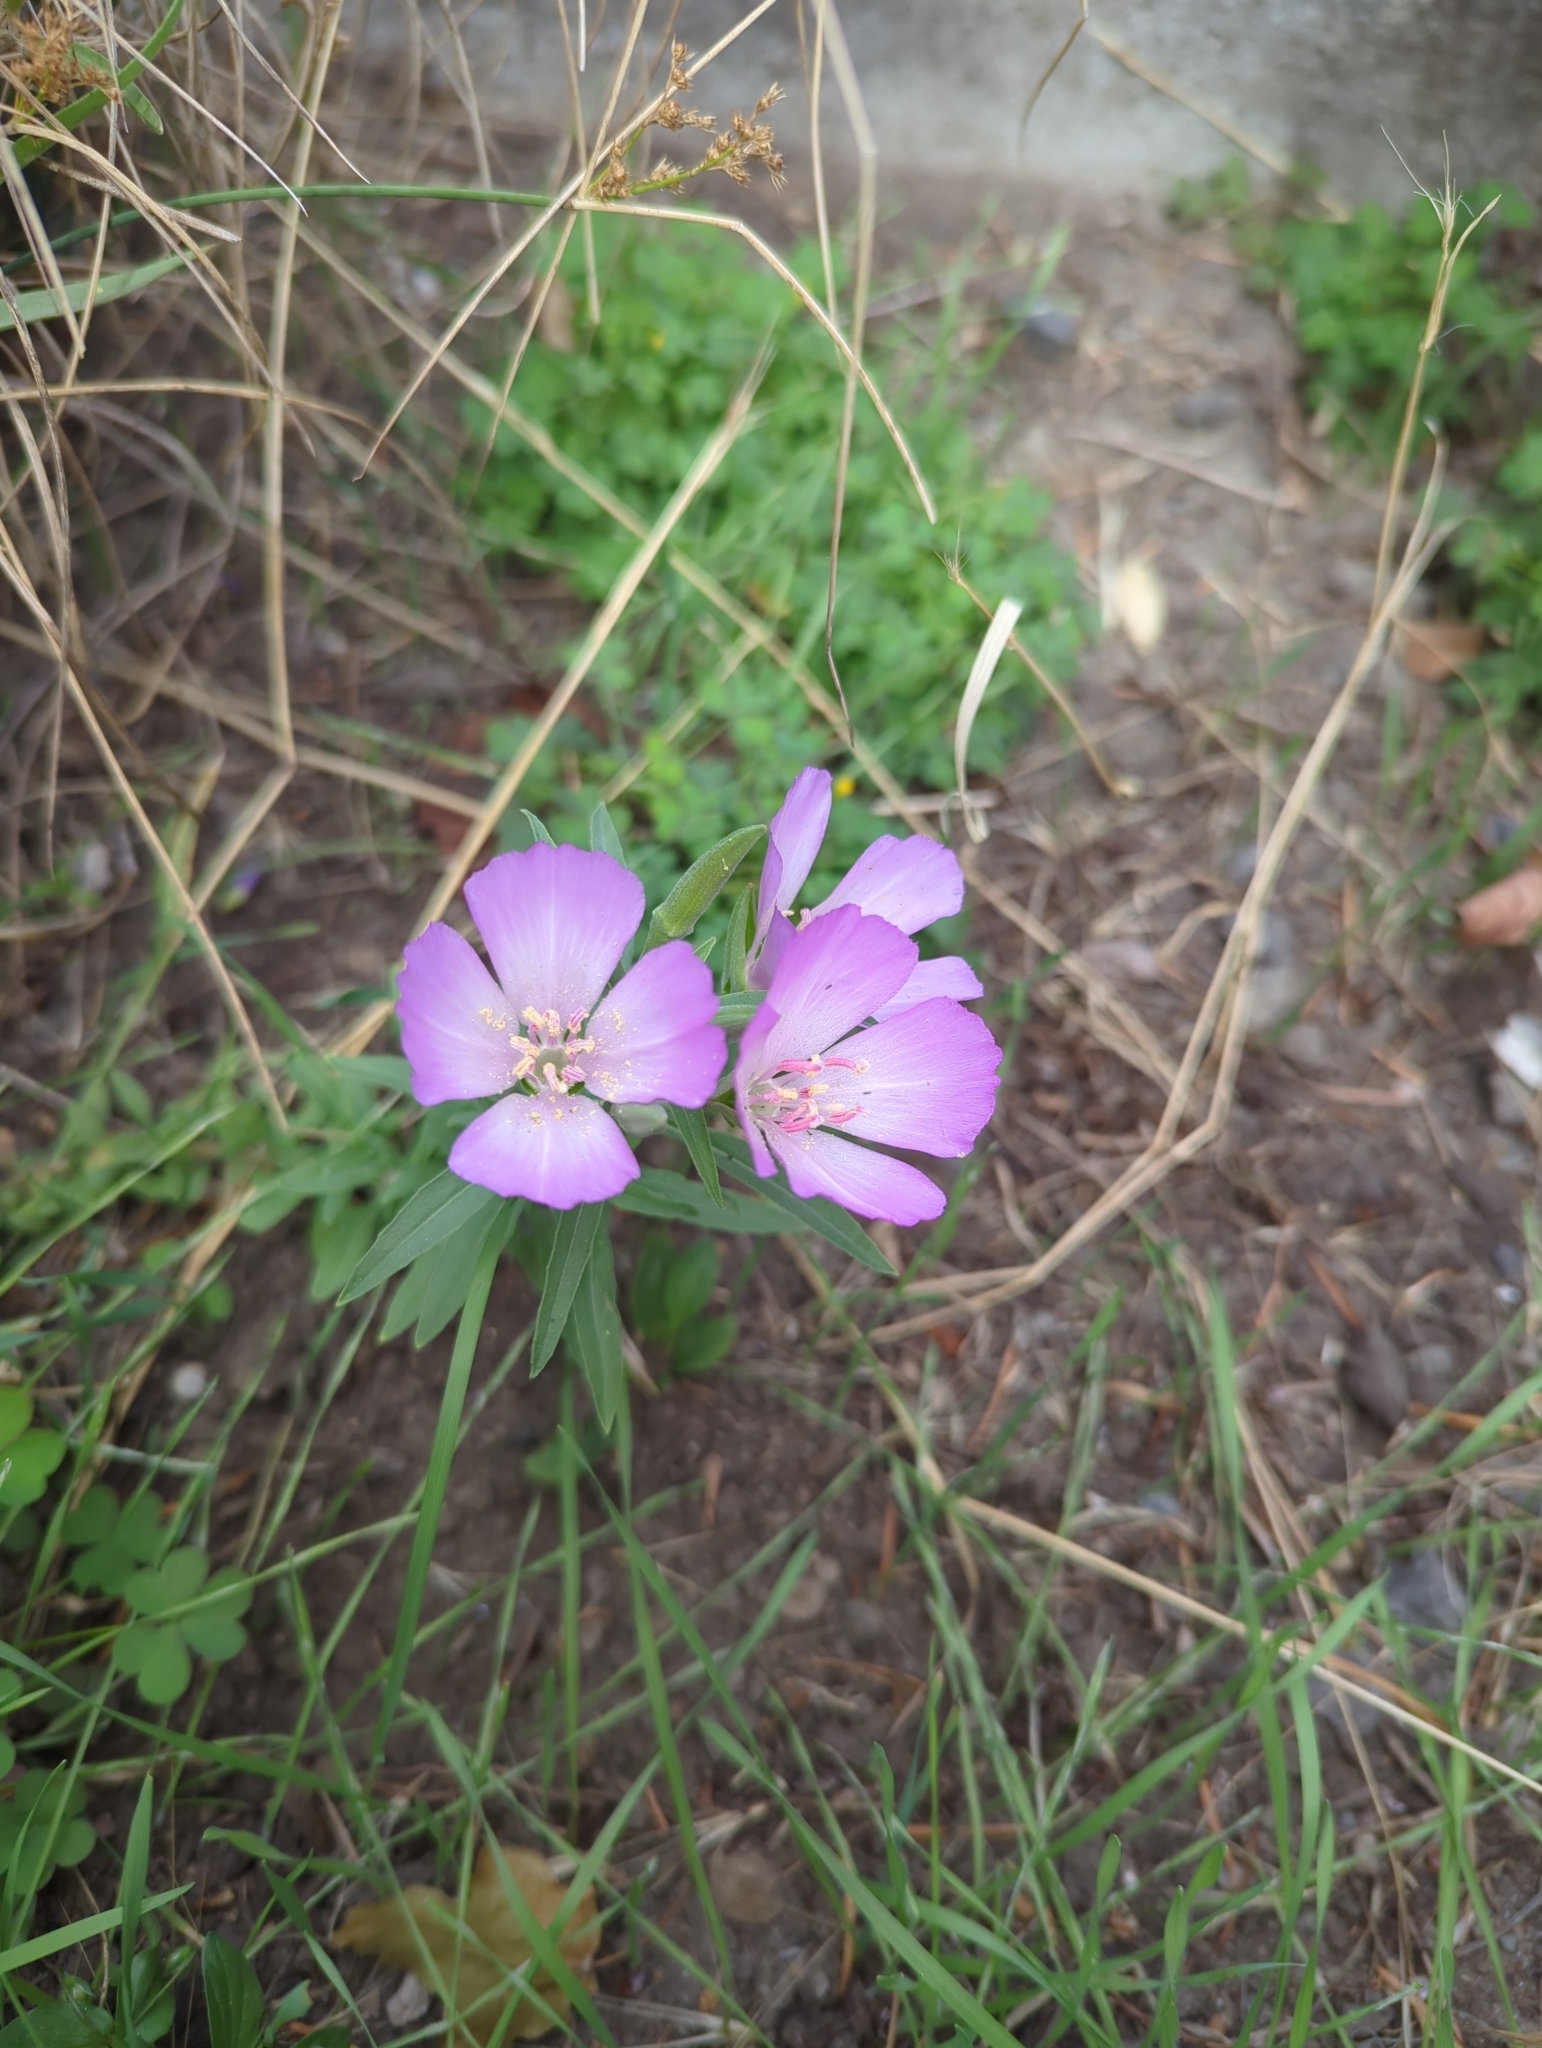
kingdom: Plantae
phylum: Tracheophyta
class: Magnoliopsida
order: Myrtales
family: Onagraceae
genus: Clarkia
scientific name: Clarkia amoena
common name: Godetia
